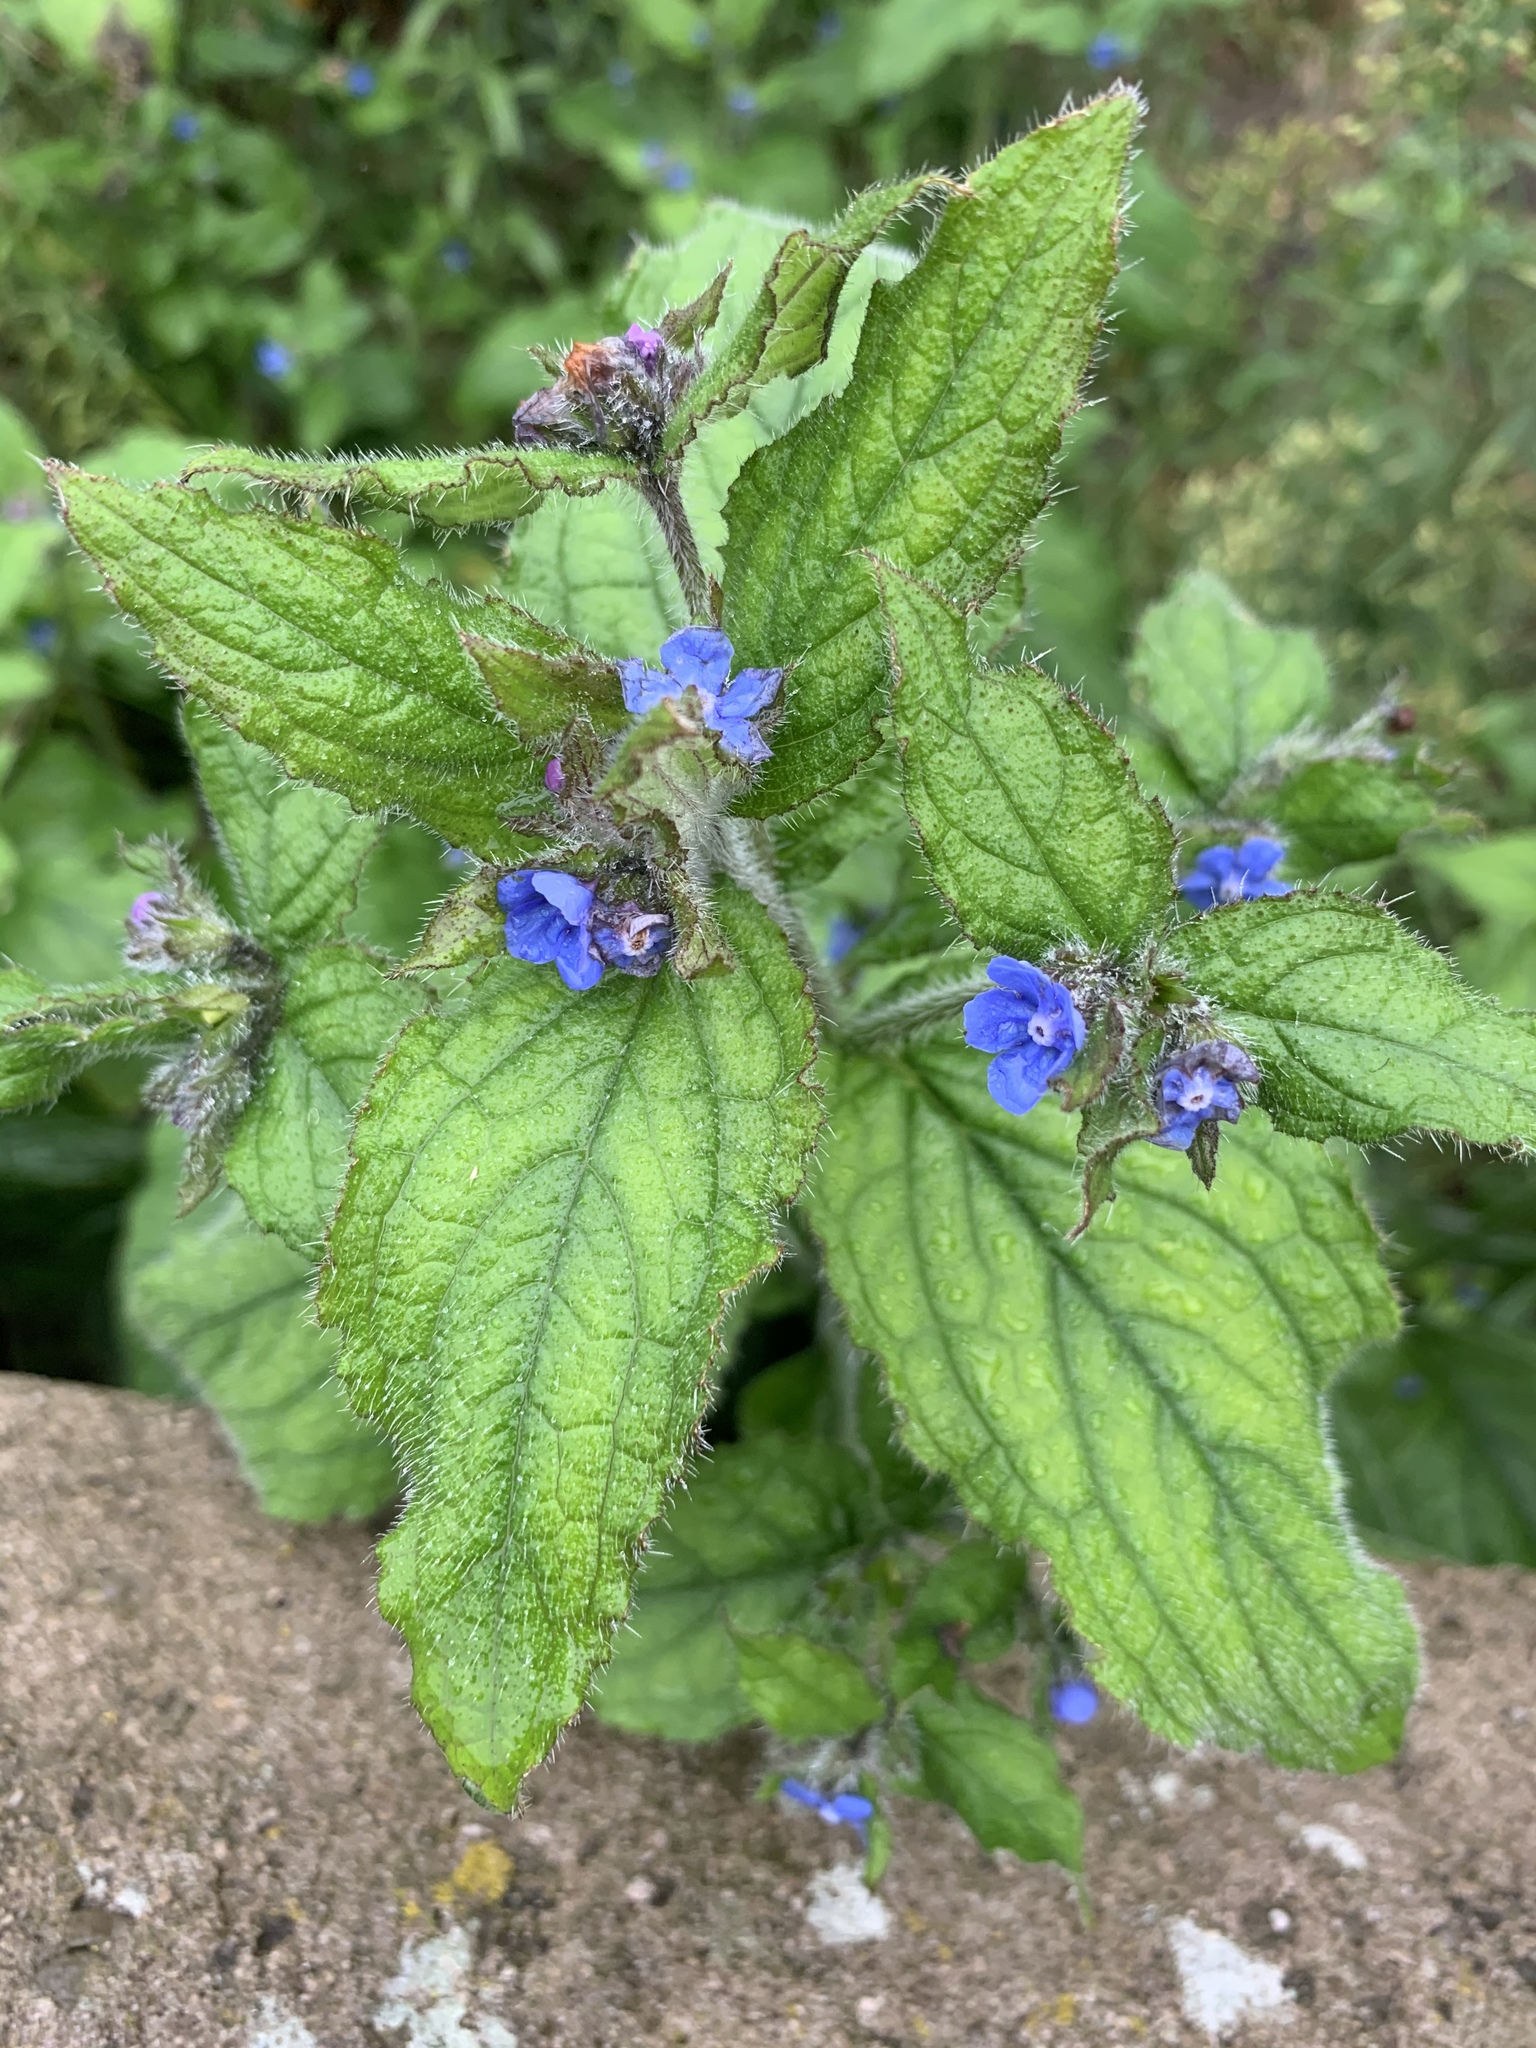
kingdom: Plantae
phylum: Tracheophyta
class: Magnoliopsida
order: Boraginales
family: Boraginaceae
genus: Pentaglottis
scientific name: Pentaglottis sempervirens
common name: Green alkanet
